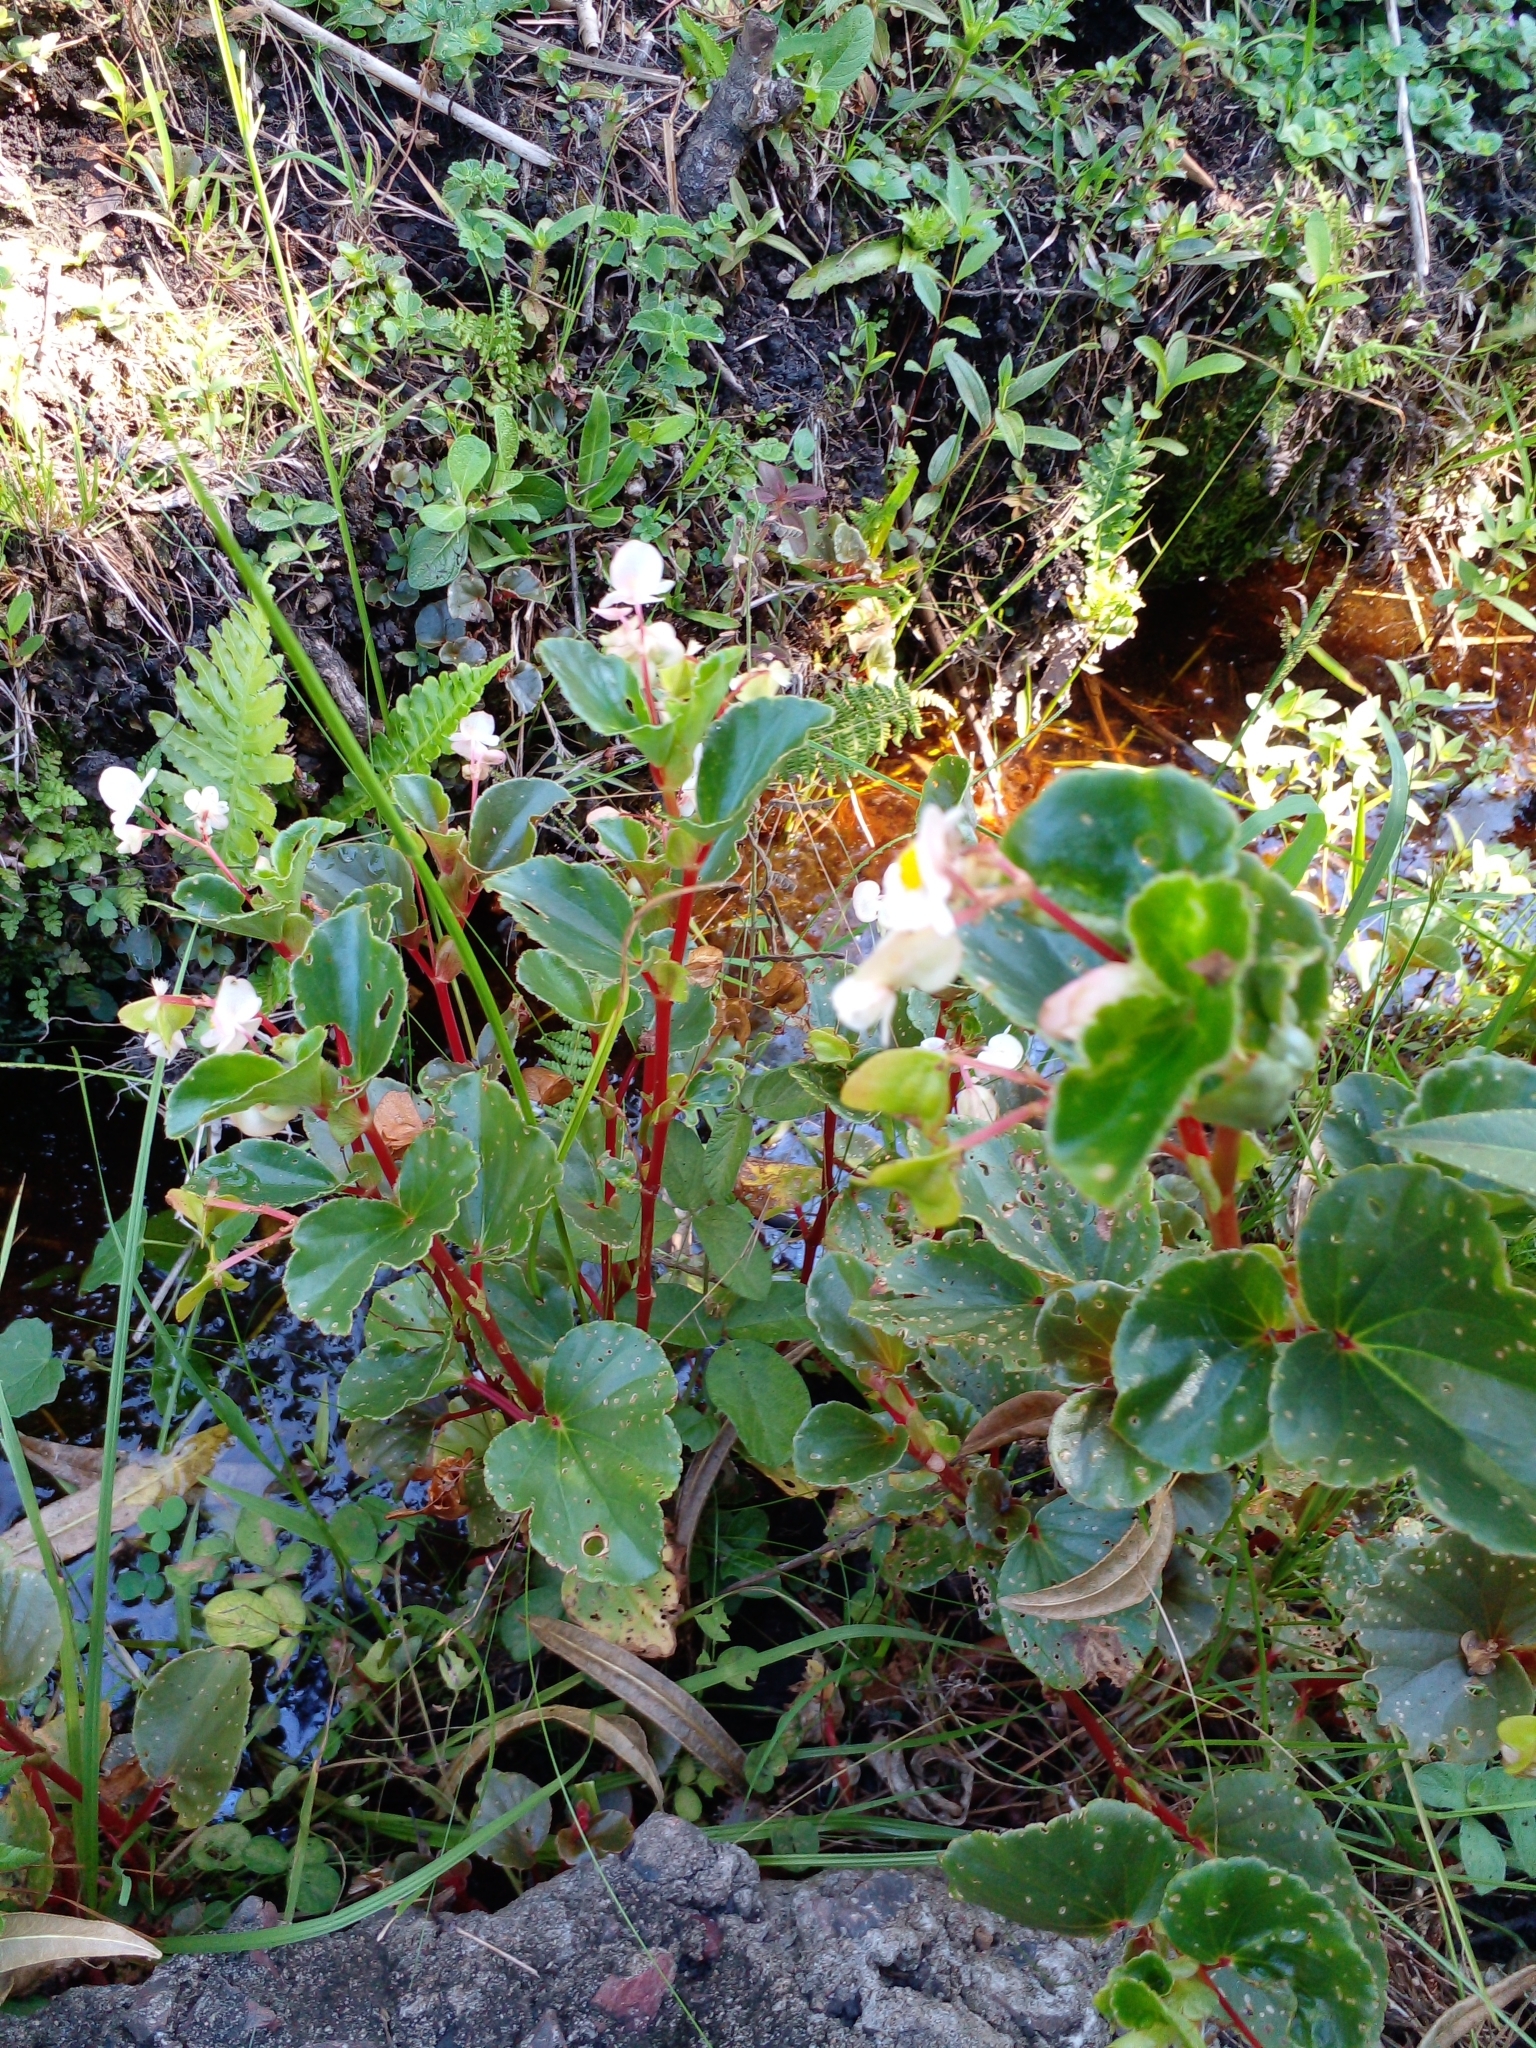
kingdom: Plantae
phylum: Tracheophyta
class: Magnoliopsida
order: Cucurbitales
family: Begoniaceae
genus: Begonia
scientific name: Begonia cucullata
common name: Clubbed begonia
